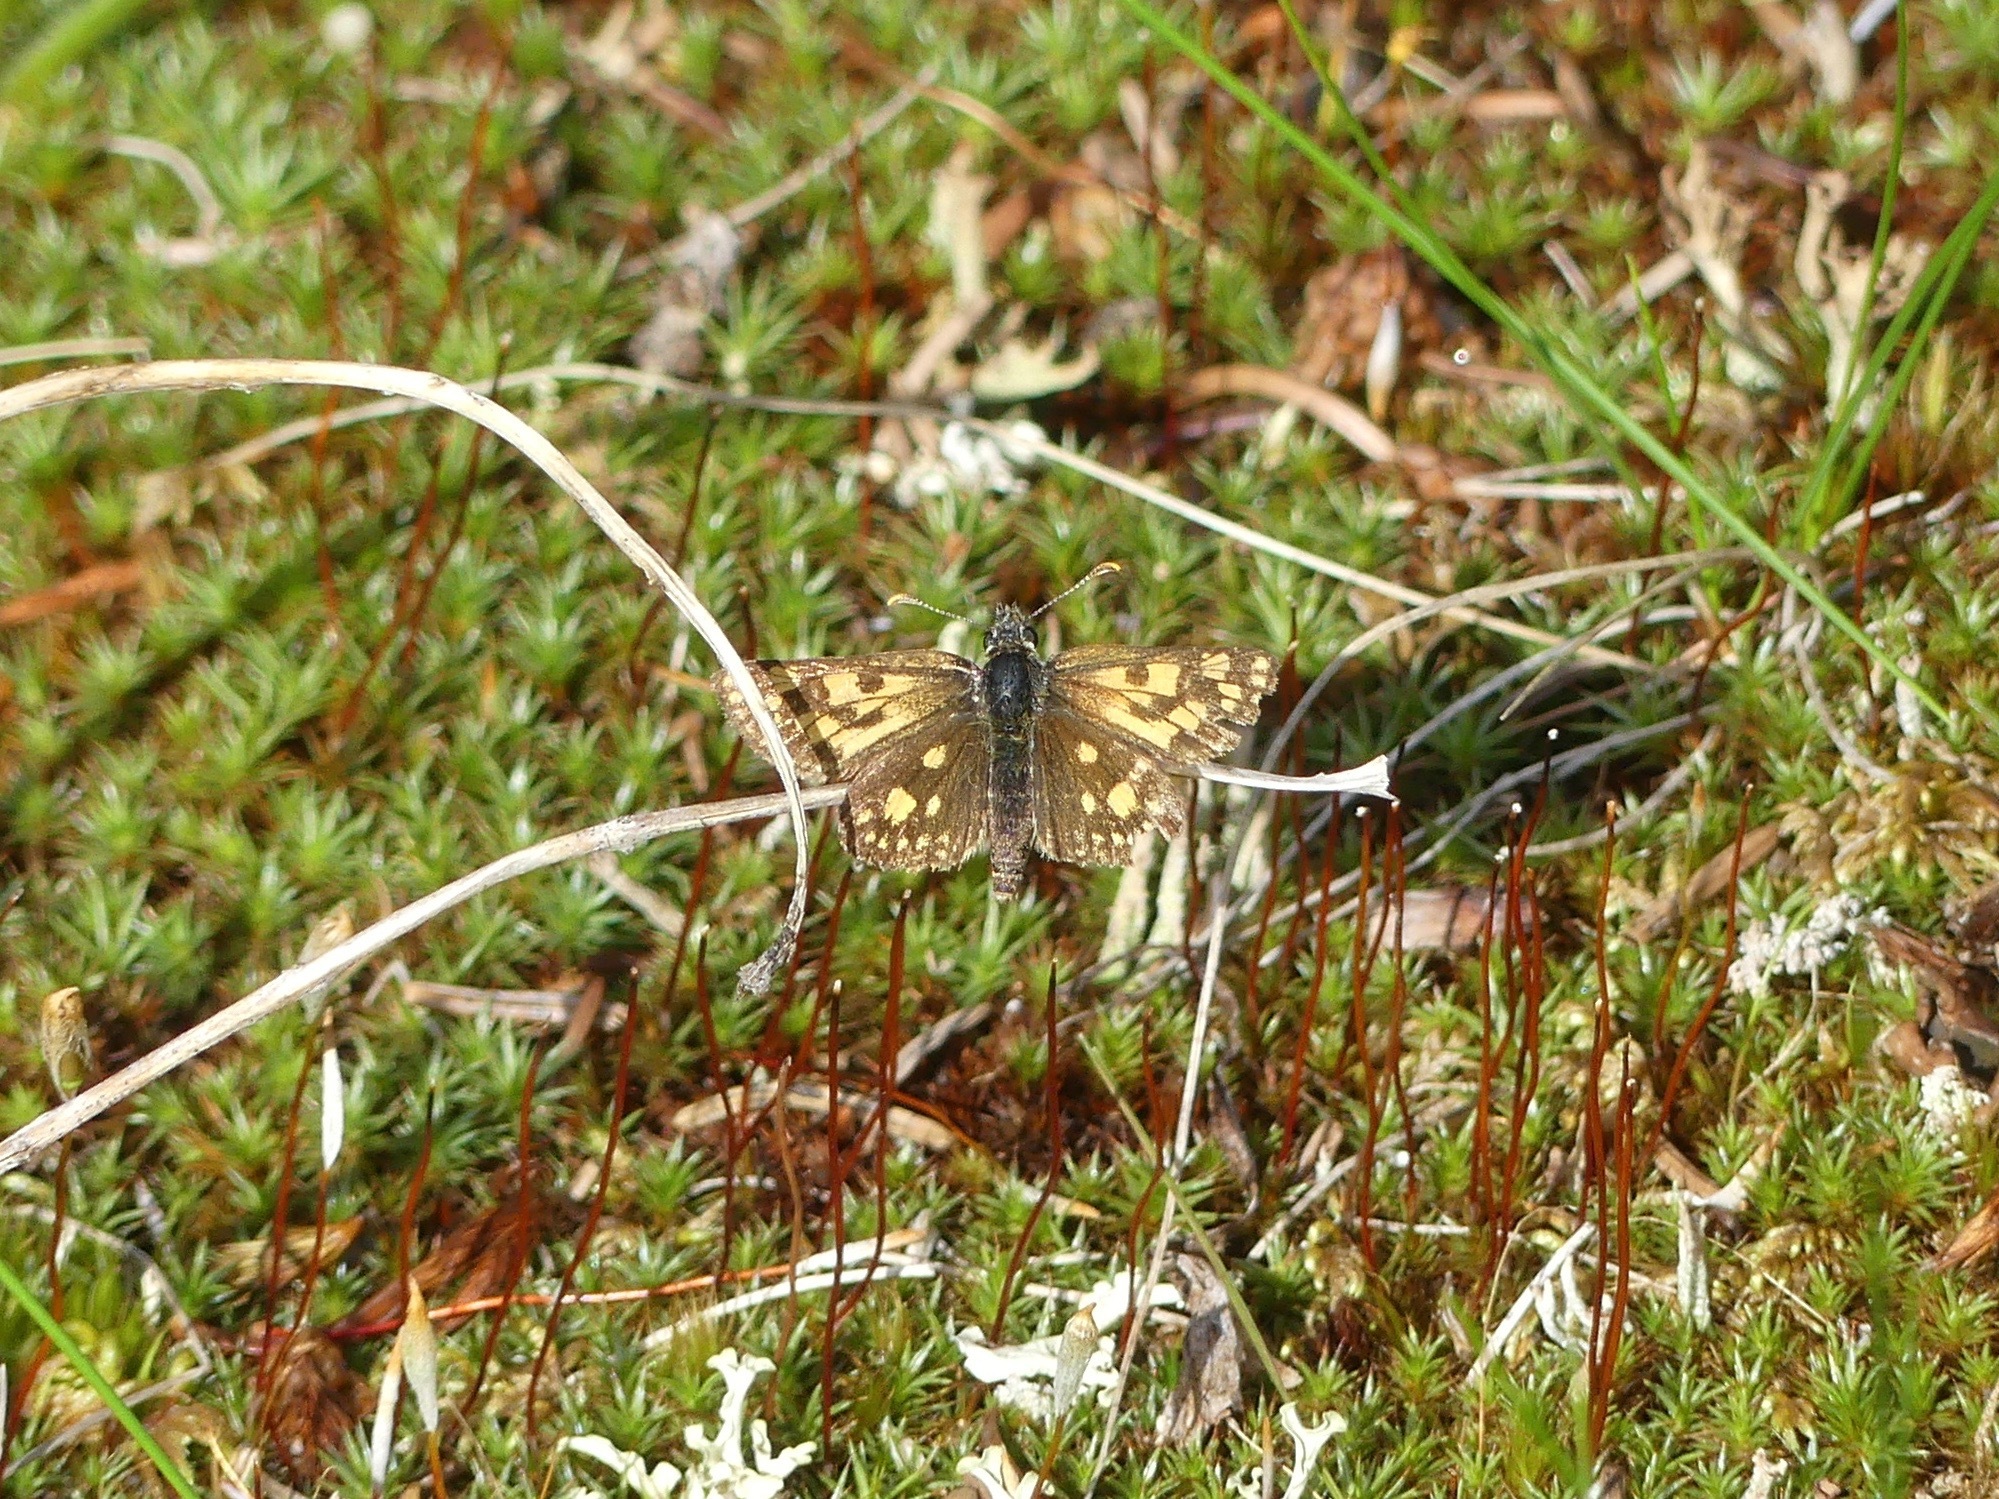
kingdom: Animalia
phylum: Arthropoda
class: Insecta
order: Lepidoptera
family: Hesperiidae
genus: Carterocephalus
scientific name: Carterocephalus skada
